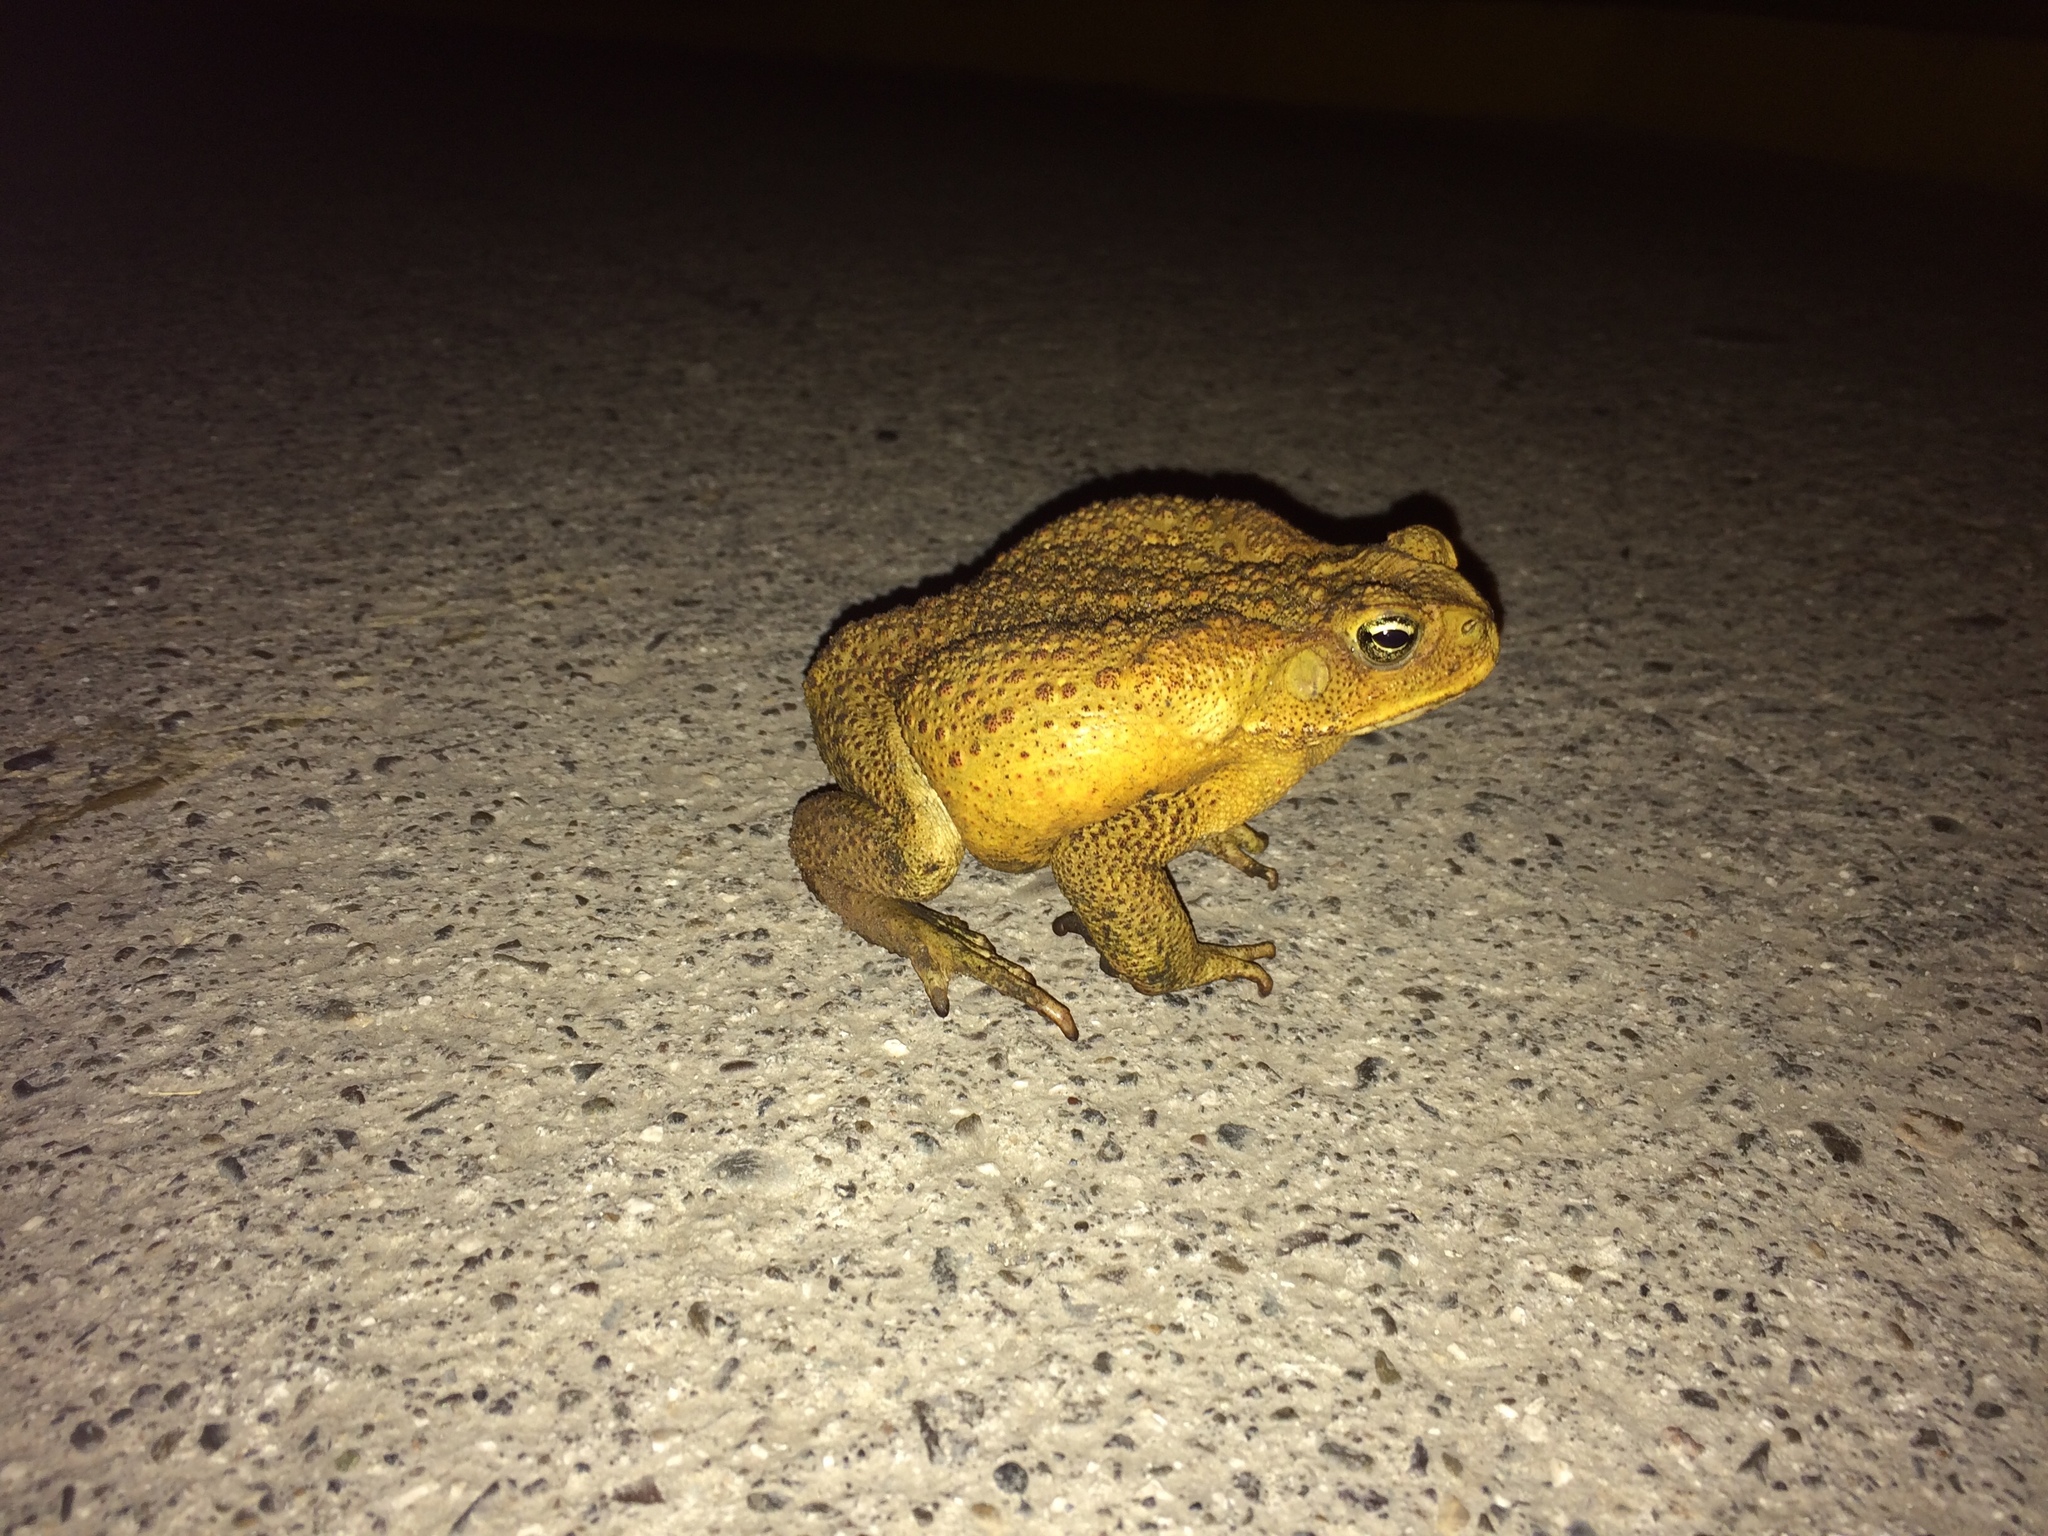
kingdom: Animalia
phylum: Chordata
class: Amphibia
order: Anura
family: Bufonidae
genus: Rhinella
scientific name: Rhinella marina
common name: Cane toad
